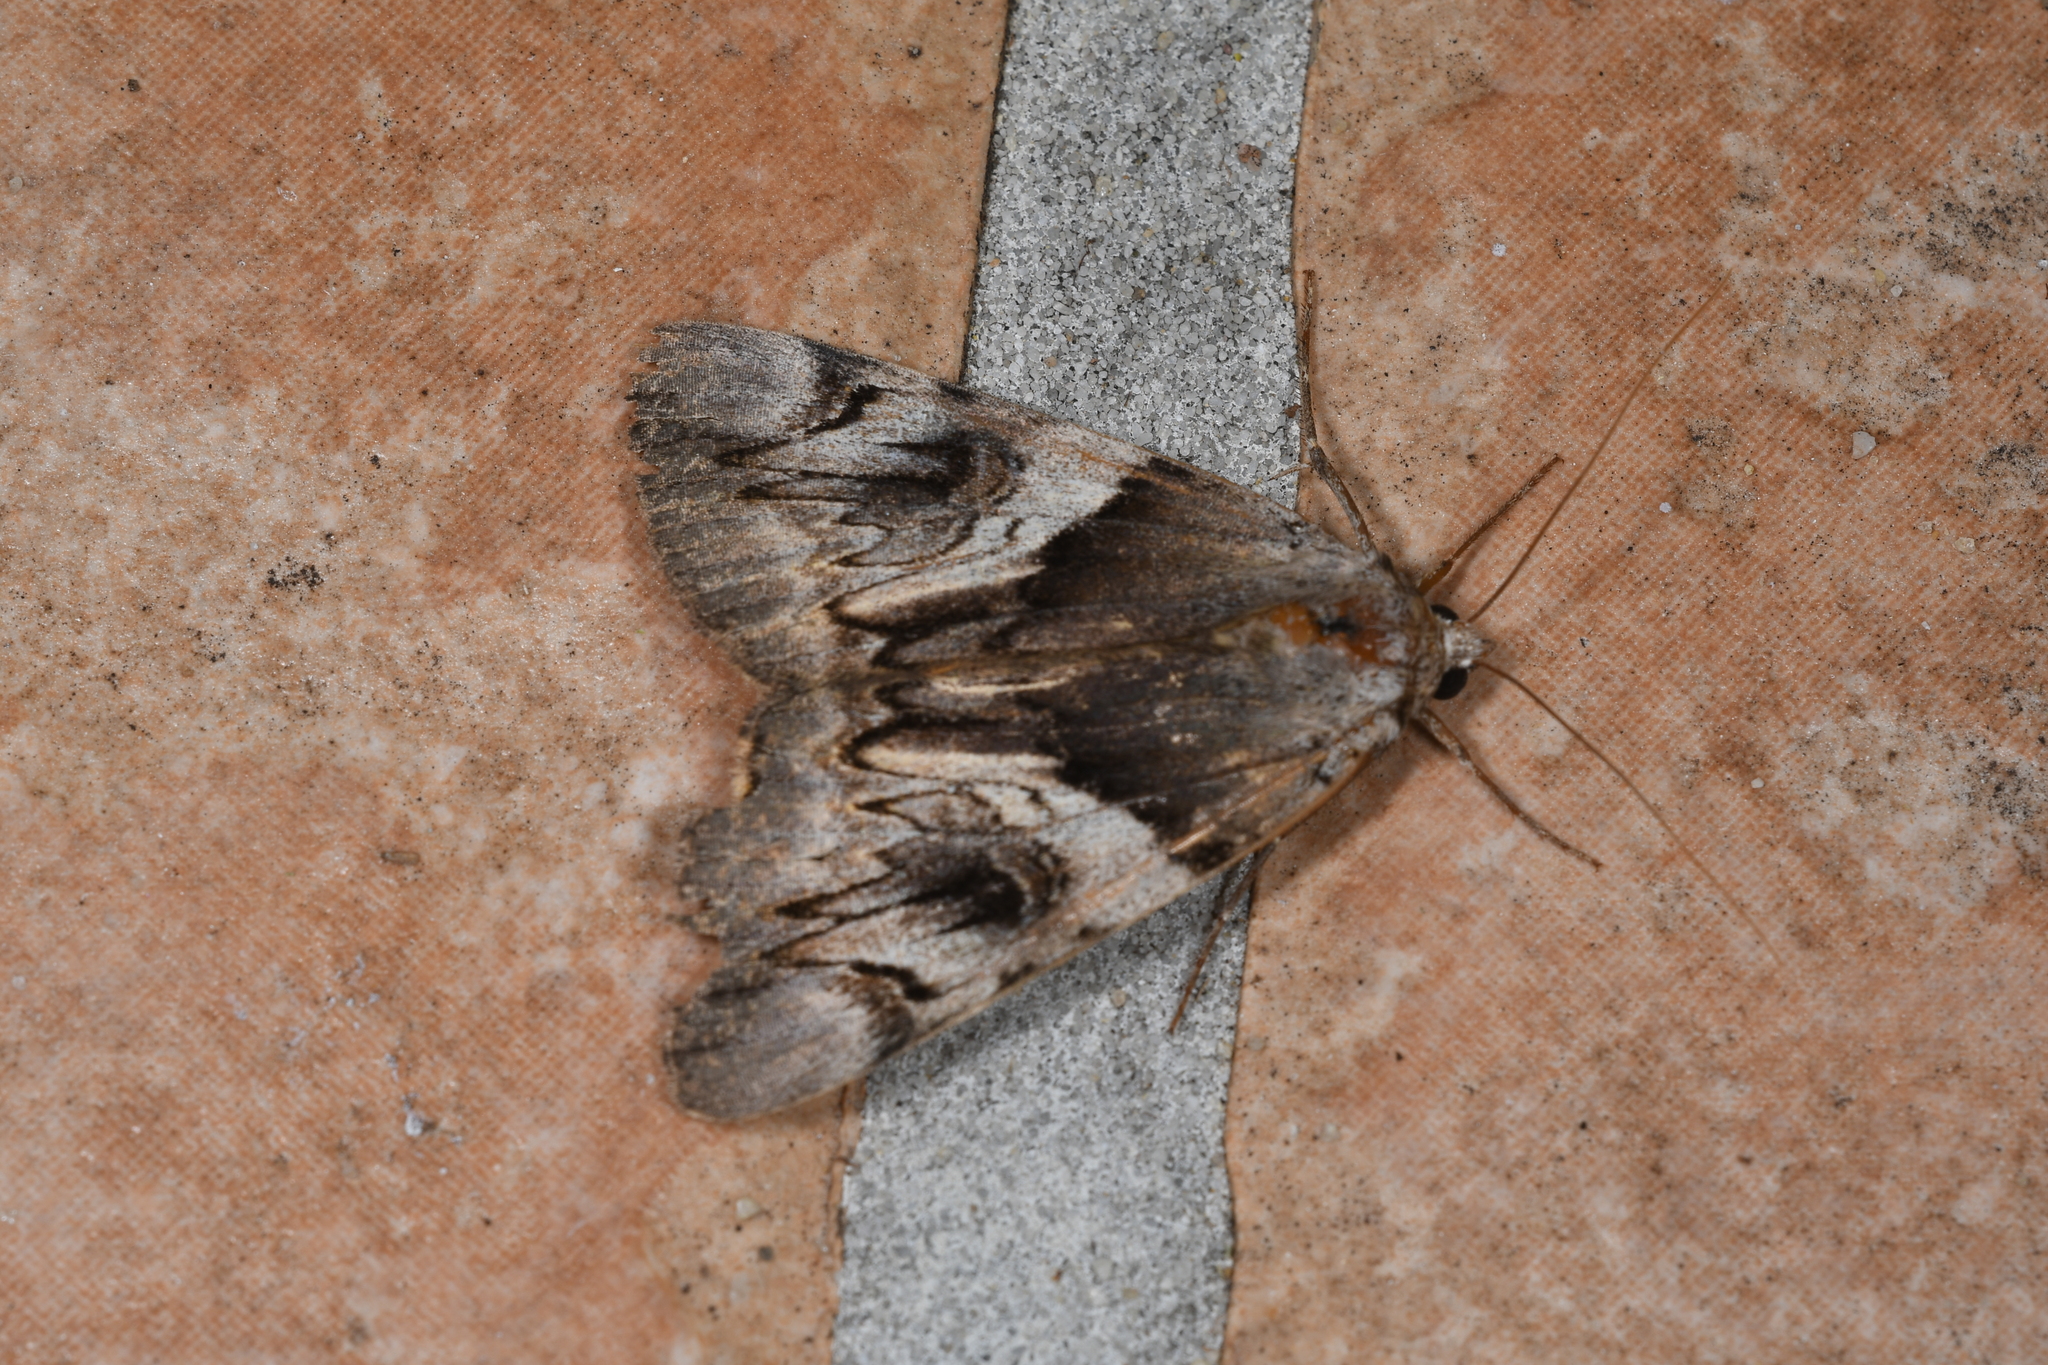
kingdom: Animalia
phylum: Arthropoda
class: Insecta
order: Lepidoptera
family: Erebidae
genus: Catocala
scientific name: Catocala fulminea
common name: Yellow bands underwing
